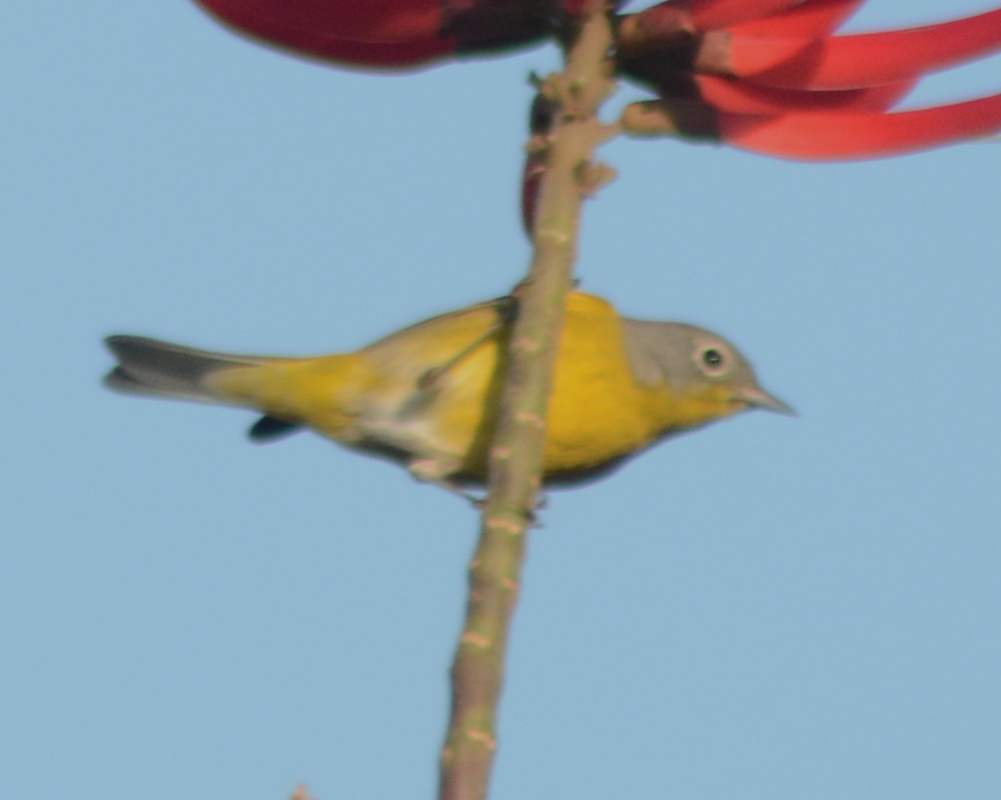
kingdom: Animalia
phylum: Chordata
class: Aves
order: Passeriformes
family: Parulidae
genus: Leiothlypis
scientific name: Leiothlypis ruficapilla
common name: Nashville warbler
